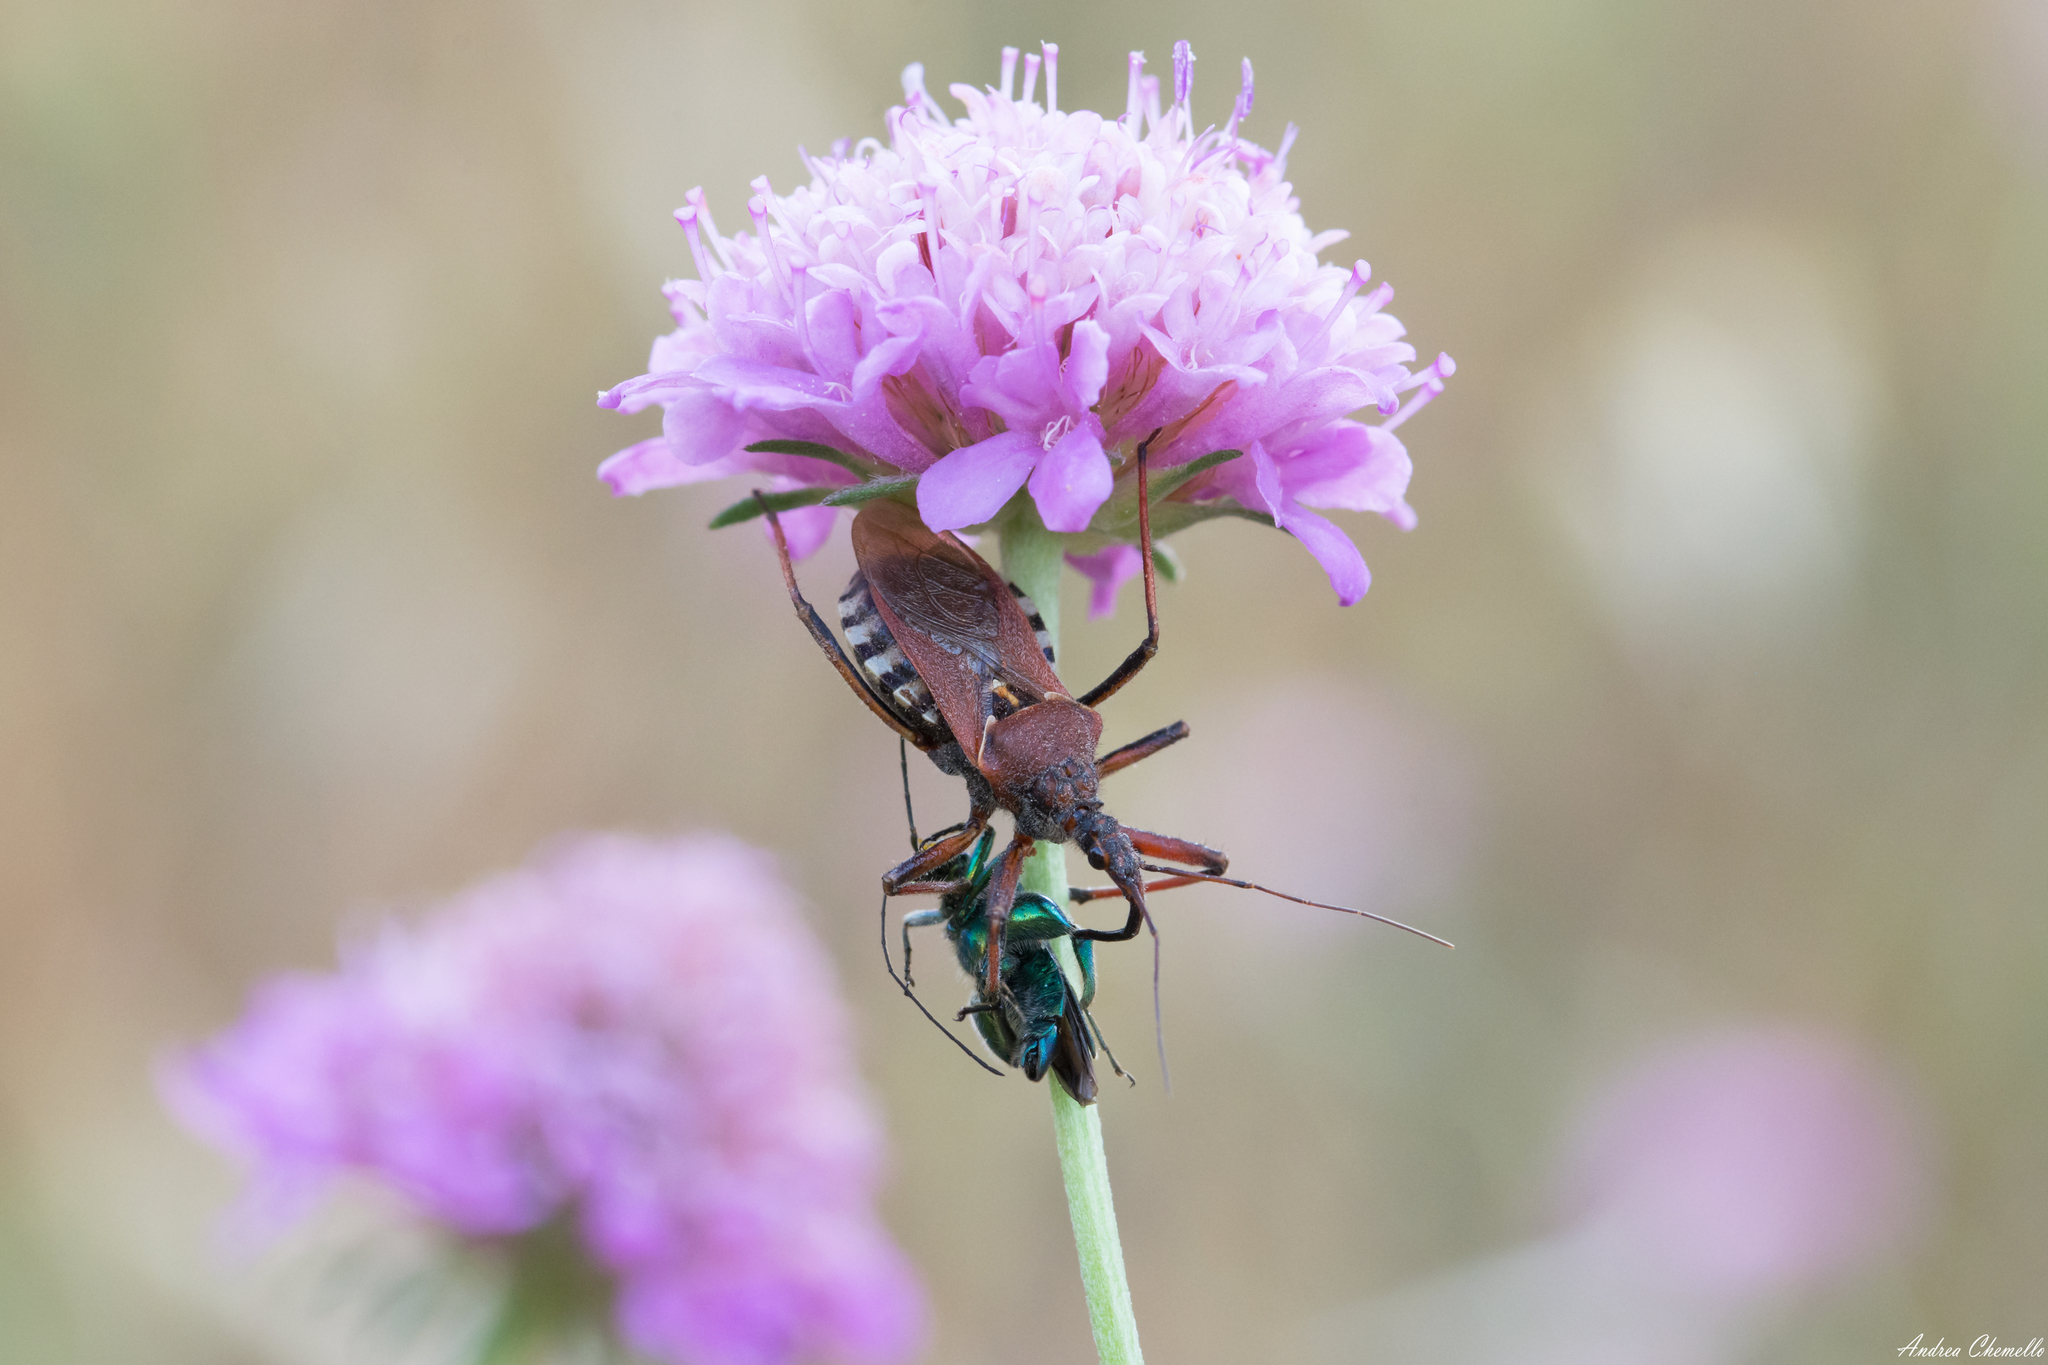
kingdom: Animalia
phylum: Arthropoda
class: Insecta
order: Hemiptera
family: Reduviidae
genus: Rhynocoris
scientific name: Rhynocoris erythropus
